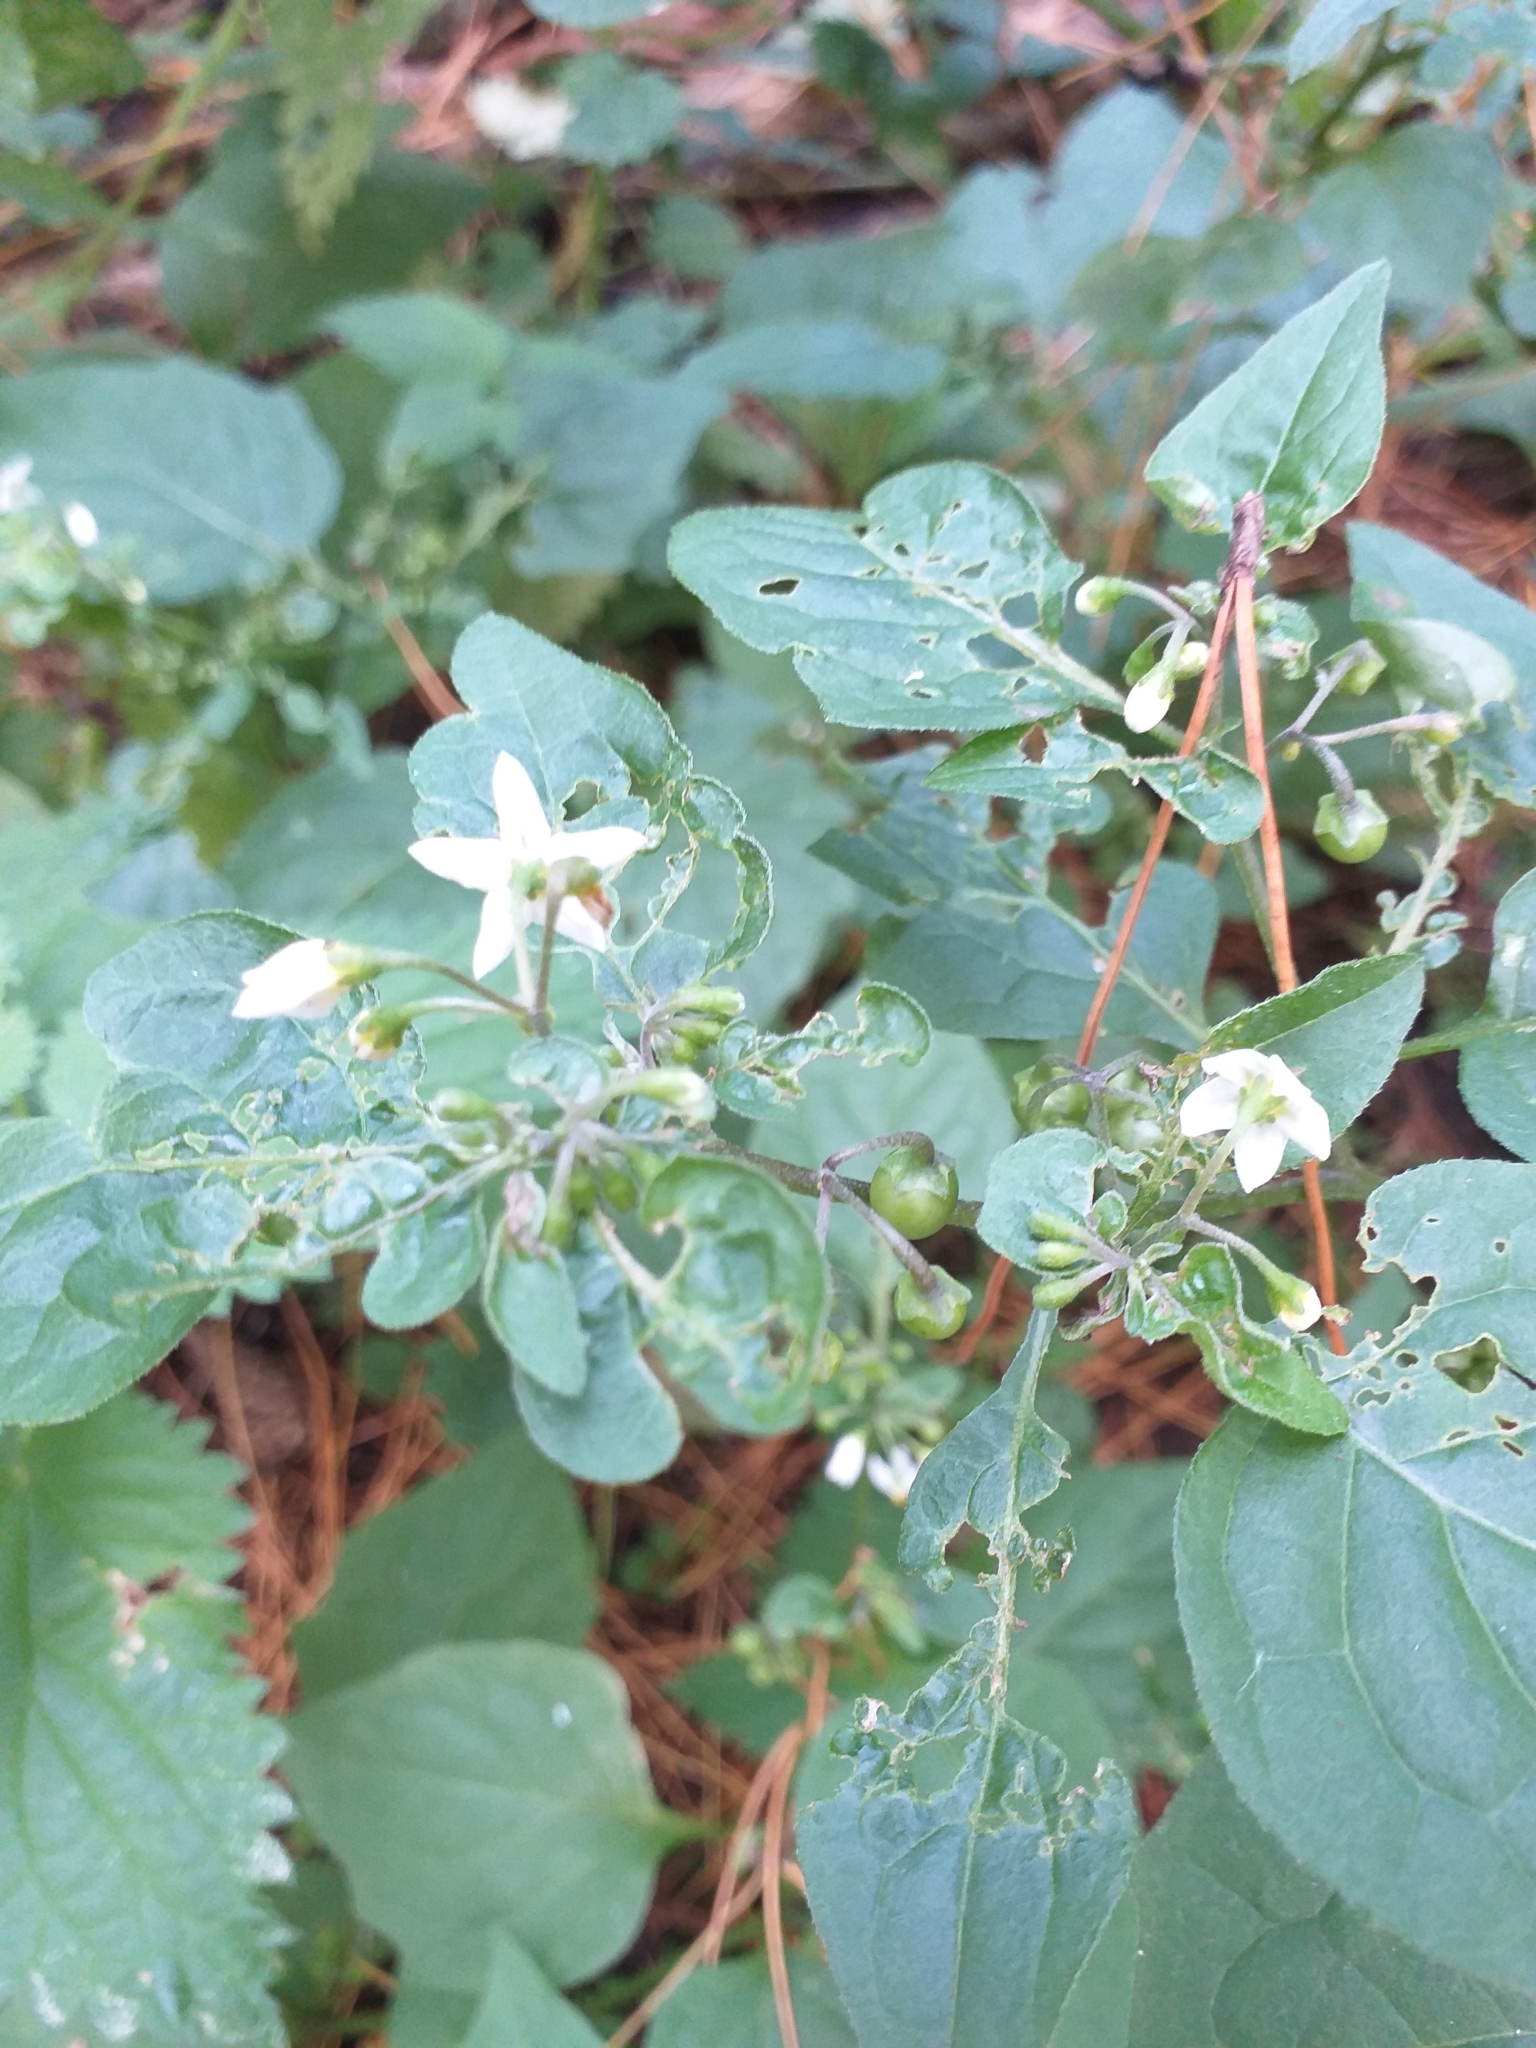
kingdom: Plantae
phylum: Tracheophyta
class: Magnoliopsida
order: Solanales
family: Solanaceae
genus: Solanum
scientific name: Solanum nigrum
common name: Black nightshade
